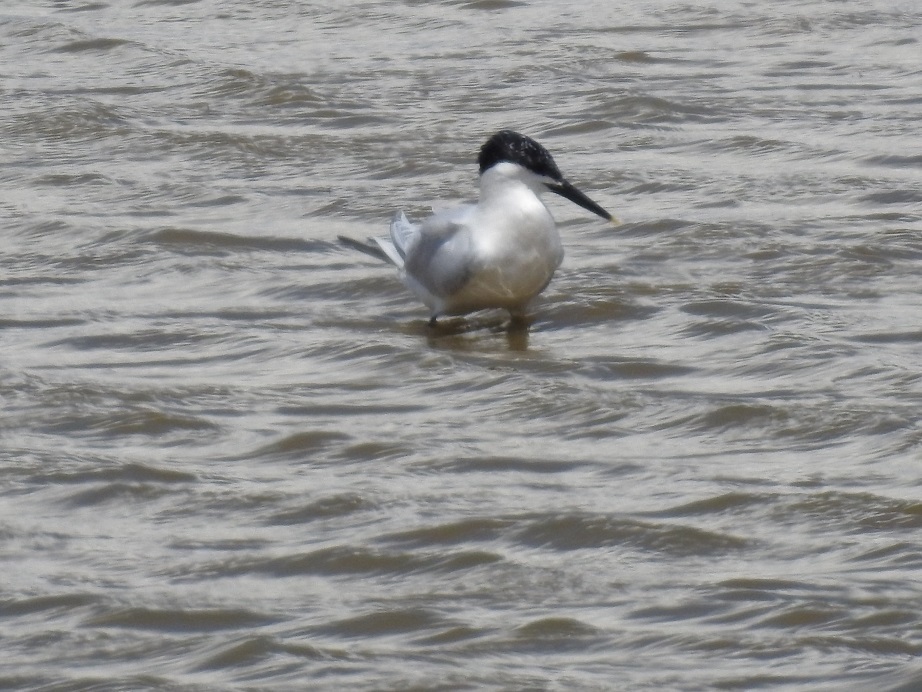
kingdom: Animalia
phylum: Chordata
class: Aves
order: Charadriiformes
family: Laridae
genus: Thalasseus
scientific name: Thalasseus sandvicensis
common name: Sandwich tern
